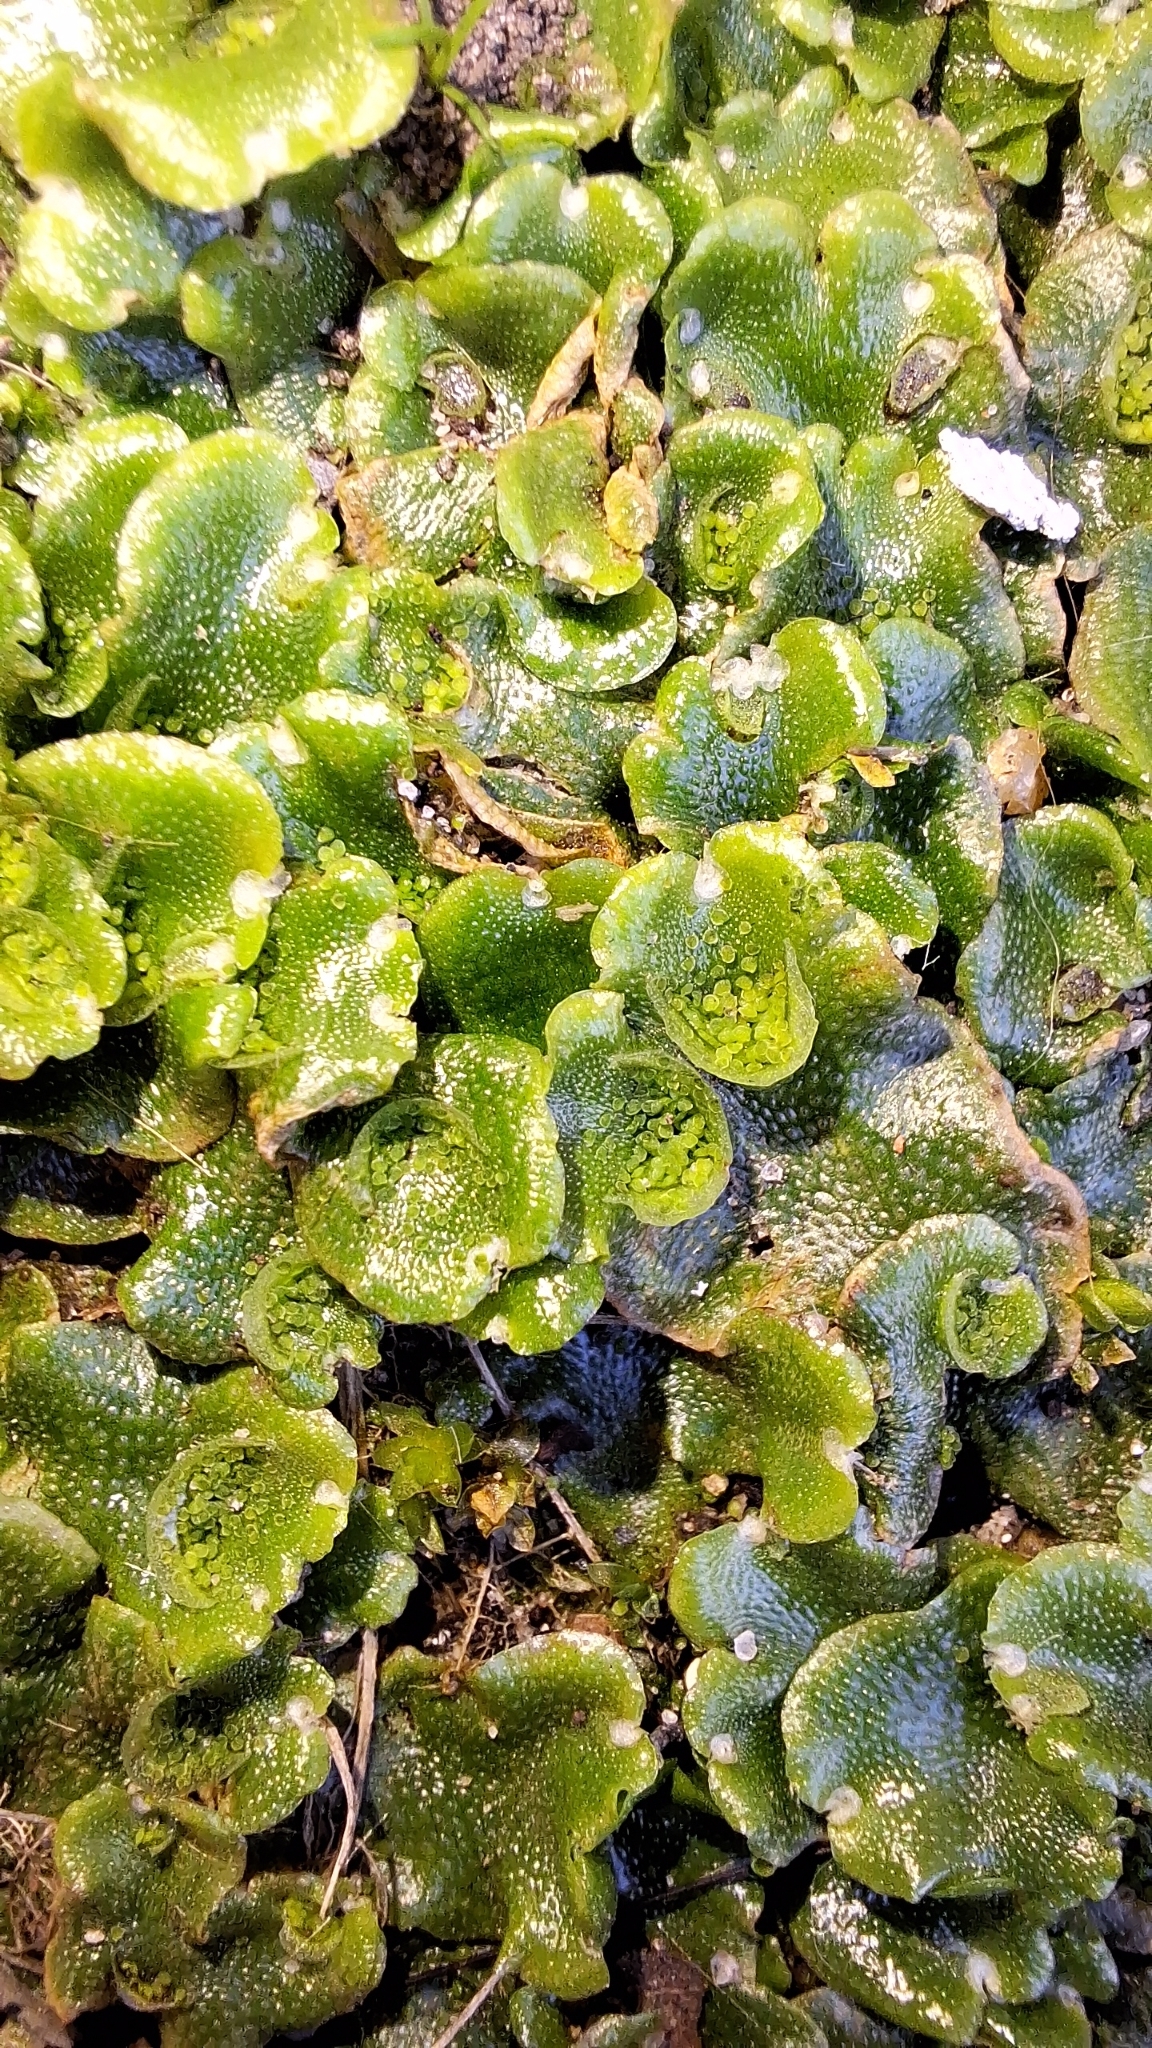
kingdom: Plantae
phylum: Marchantiophyta
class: Marchantiopsida
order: Lunulariales
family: Lunulariaceae
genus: Lunularia
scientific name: Lunularia cruciata
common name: Crescent-cup liverwort
